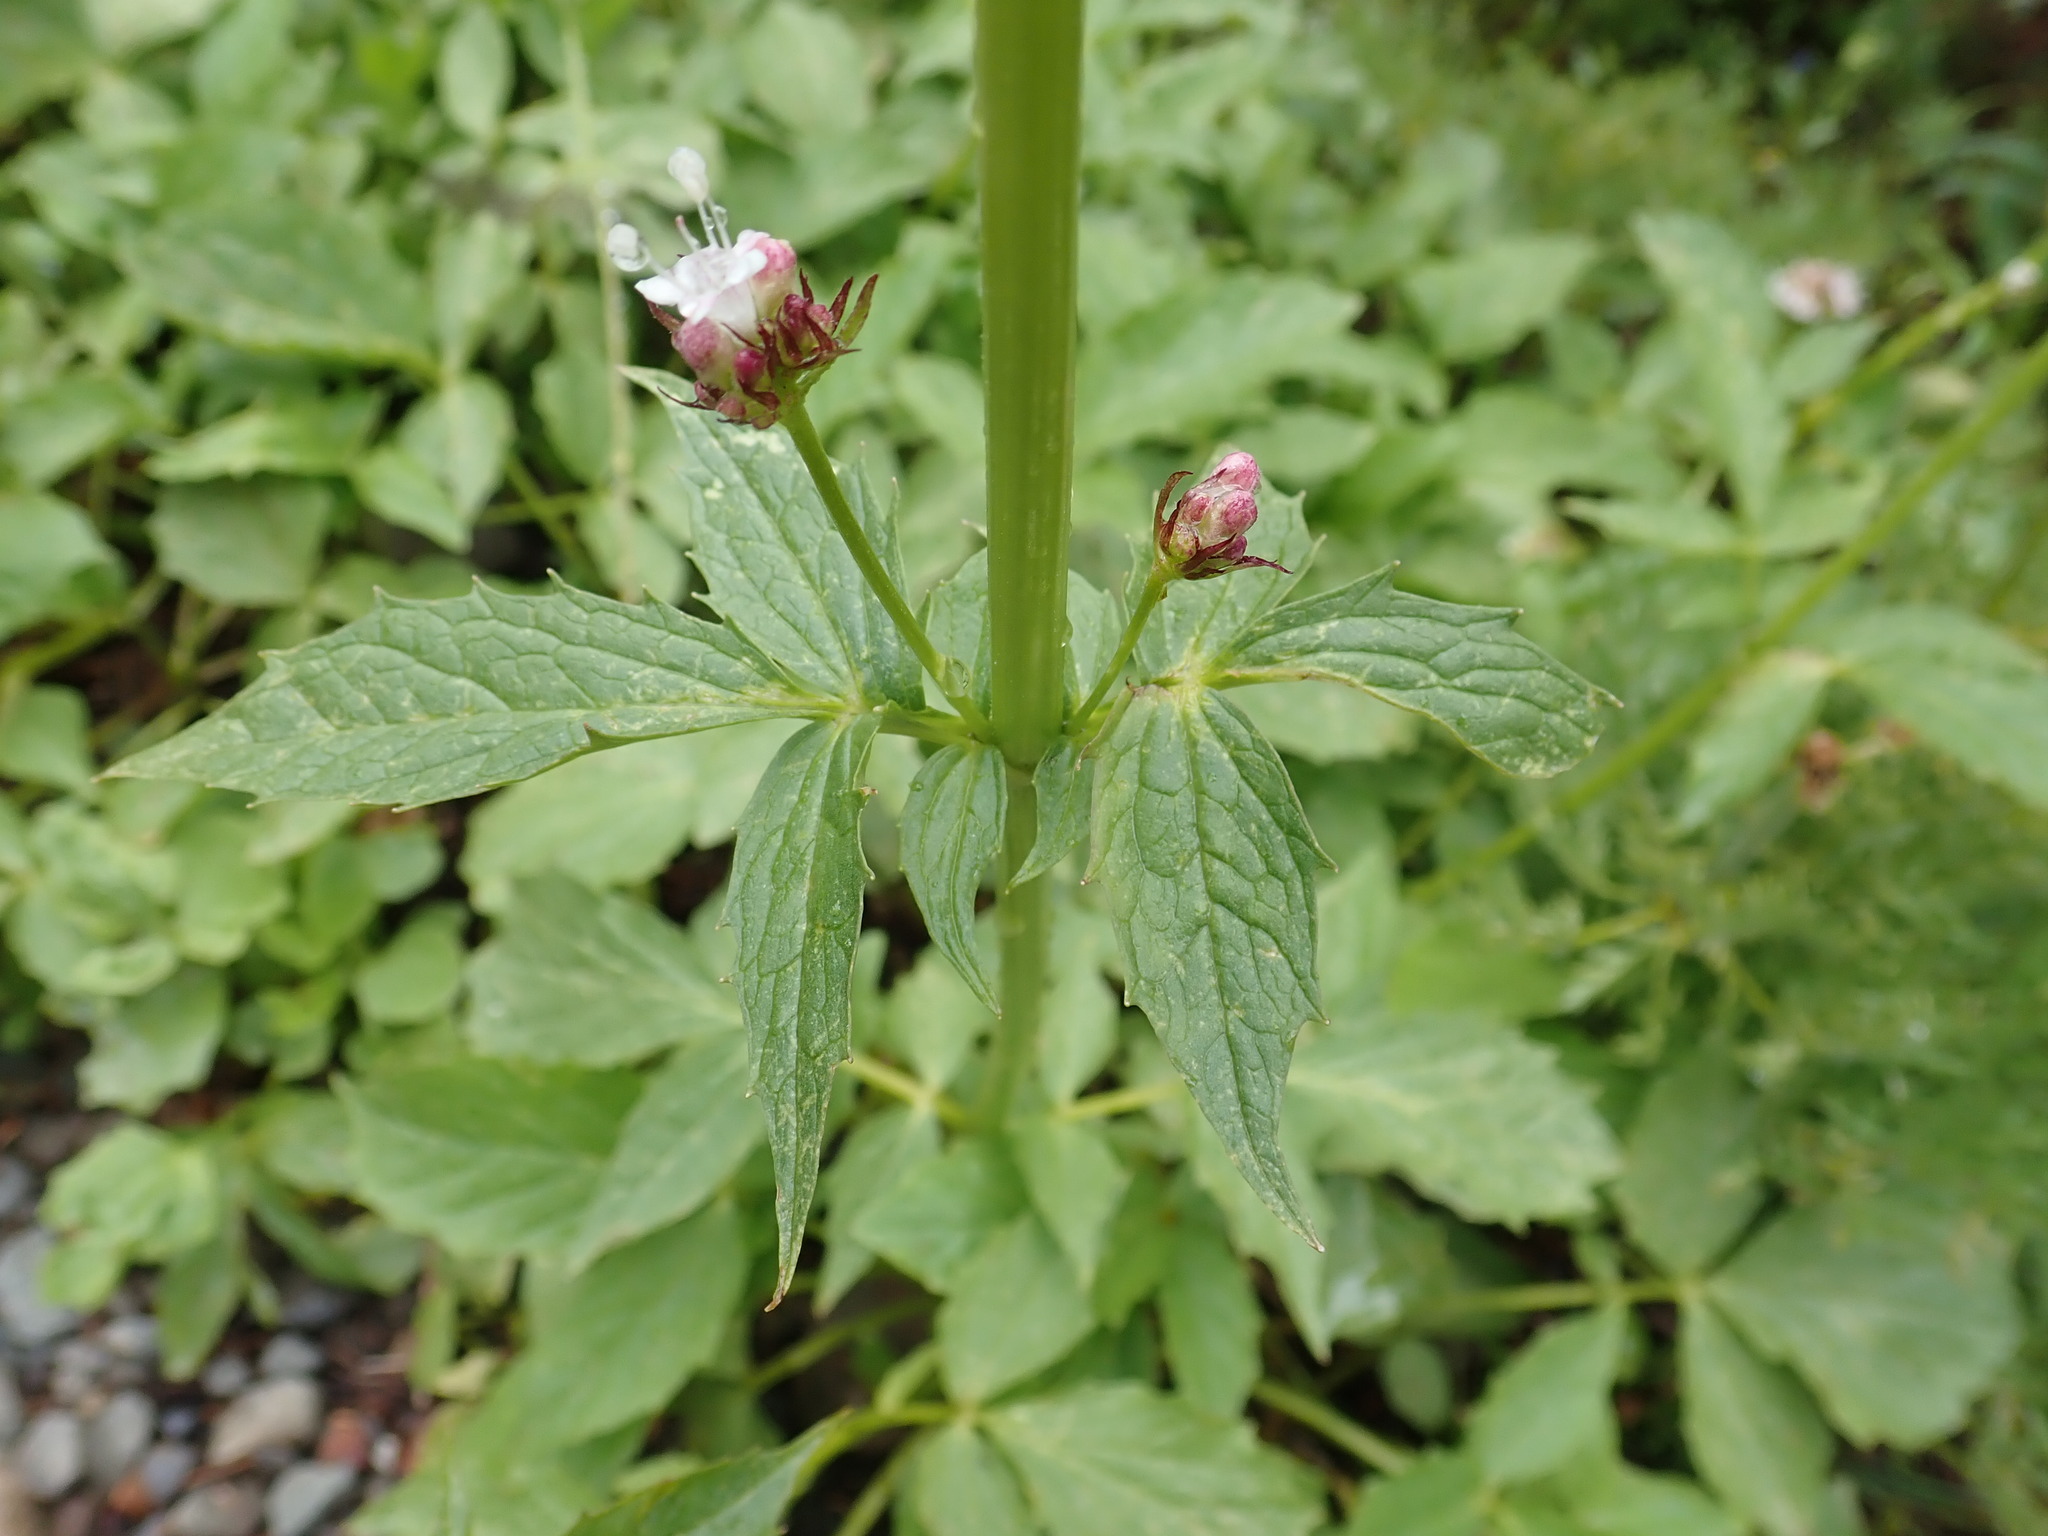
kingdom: Plantae
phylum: Tracheophyta
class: Magnoliopsida
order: Dipsacales
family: Caprifoliaceae
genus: Valeriana
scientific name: Valeriana sitchensis
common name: Pacific valerian
